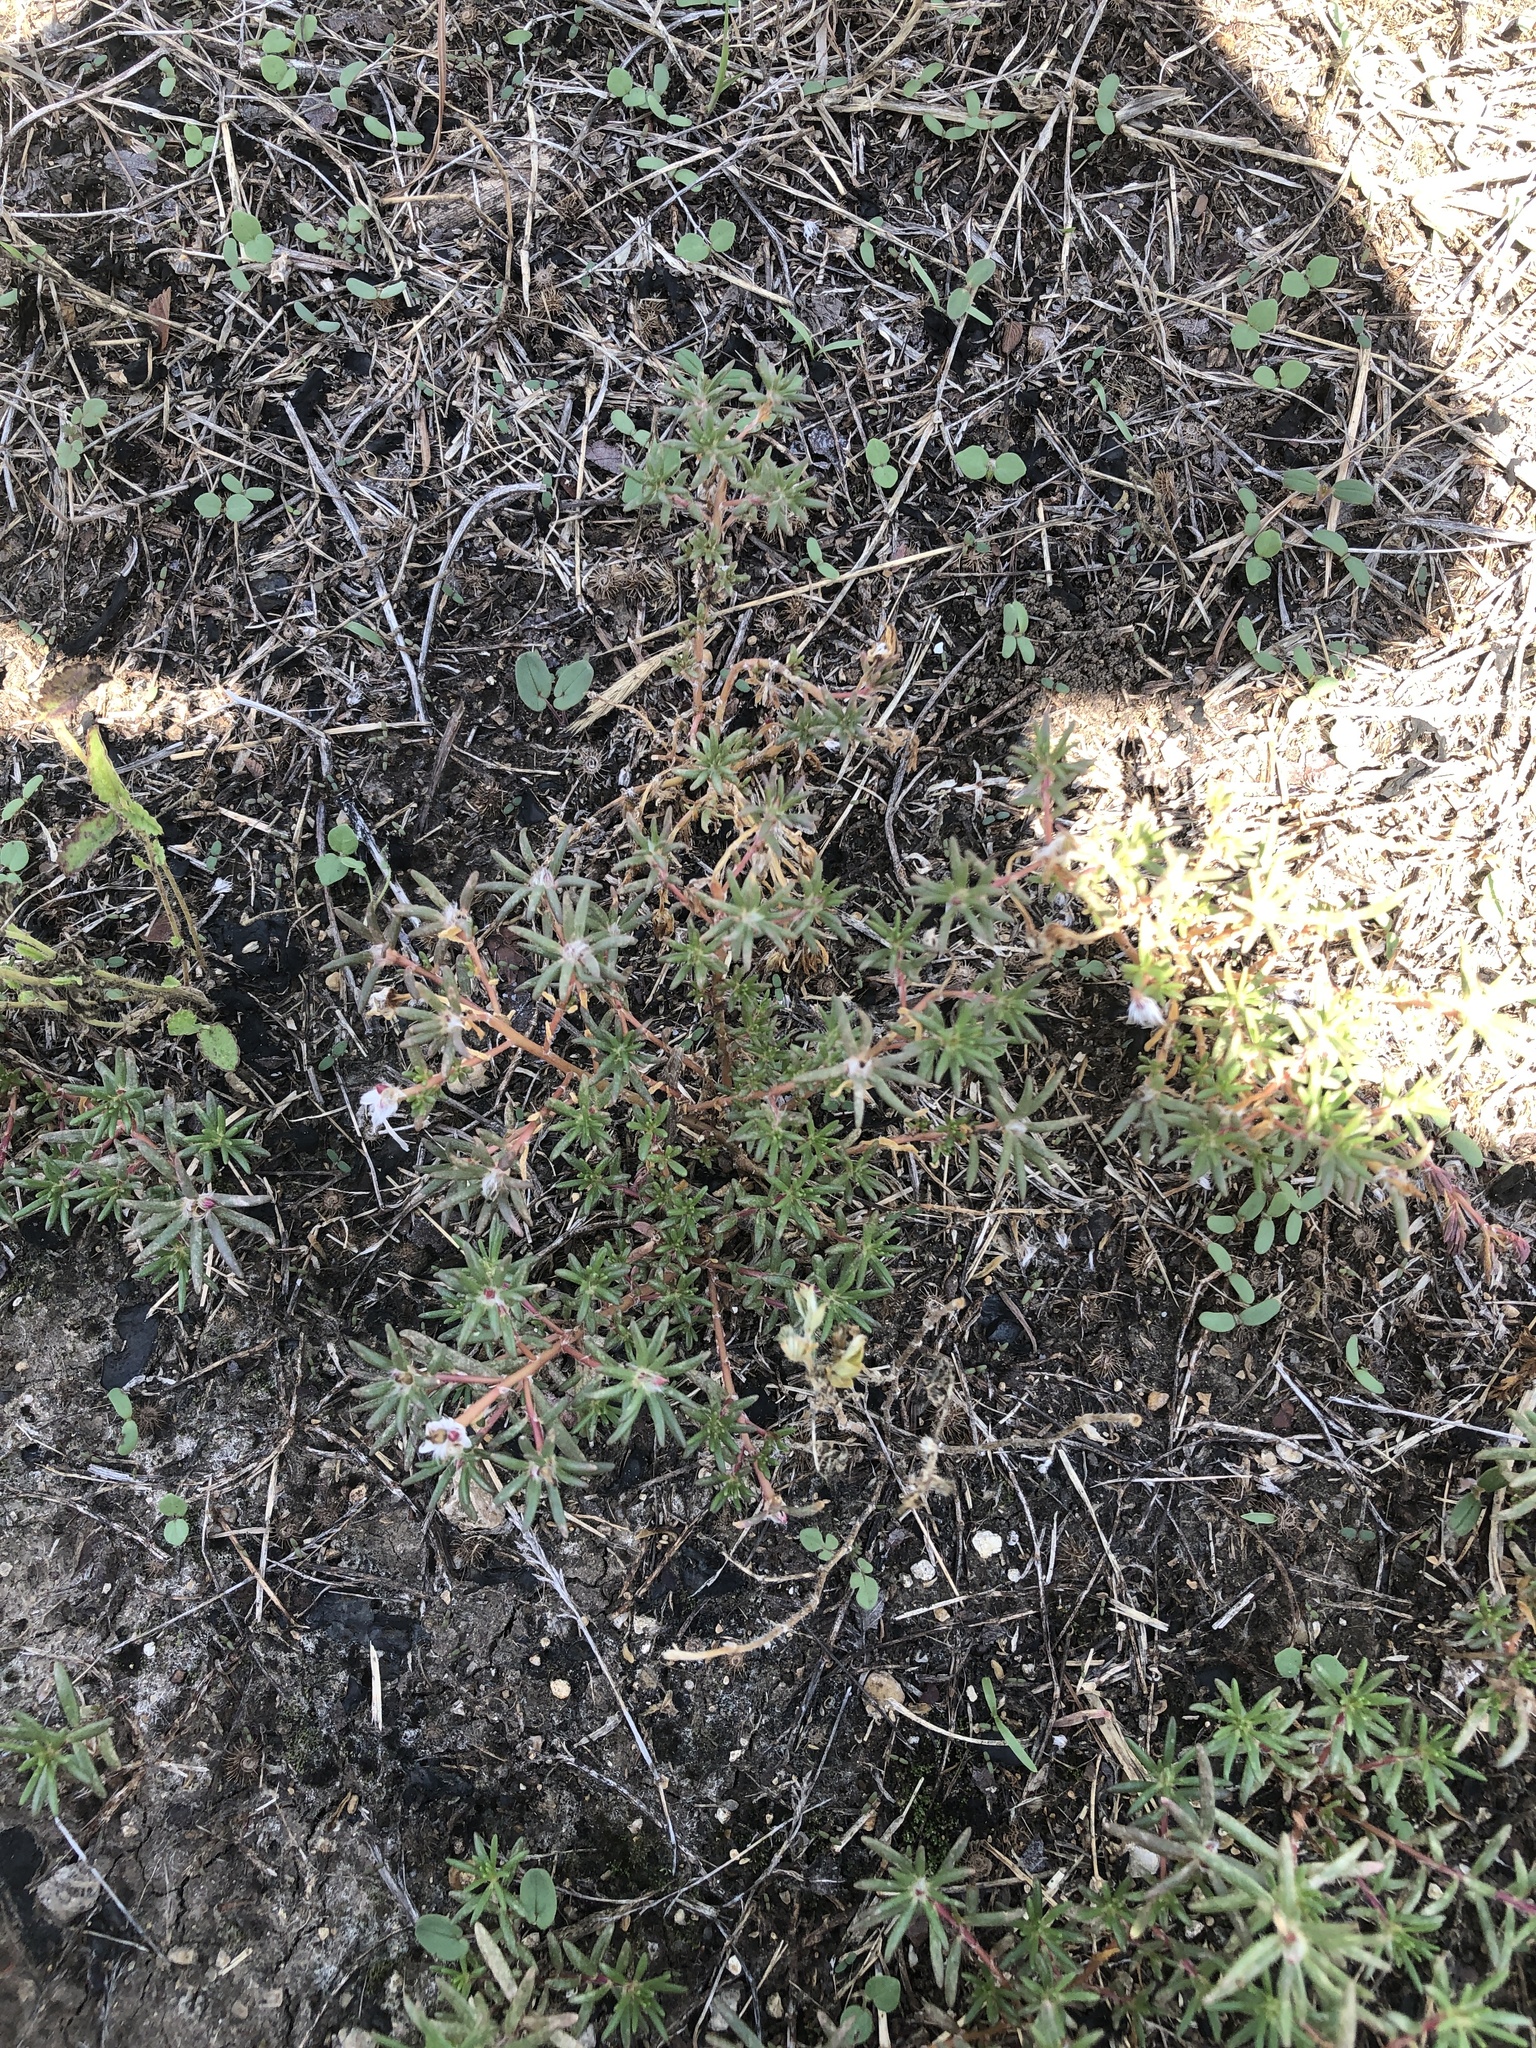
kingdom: Plantae
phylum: Tracheophyta
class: Magnoliopsida
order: Caryophyllales
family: Portulacaceae
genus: Portulaca
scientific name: Portulaca pilosa
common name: Kiss me quick
